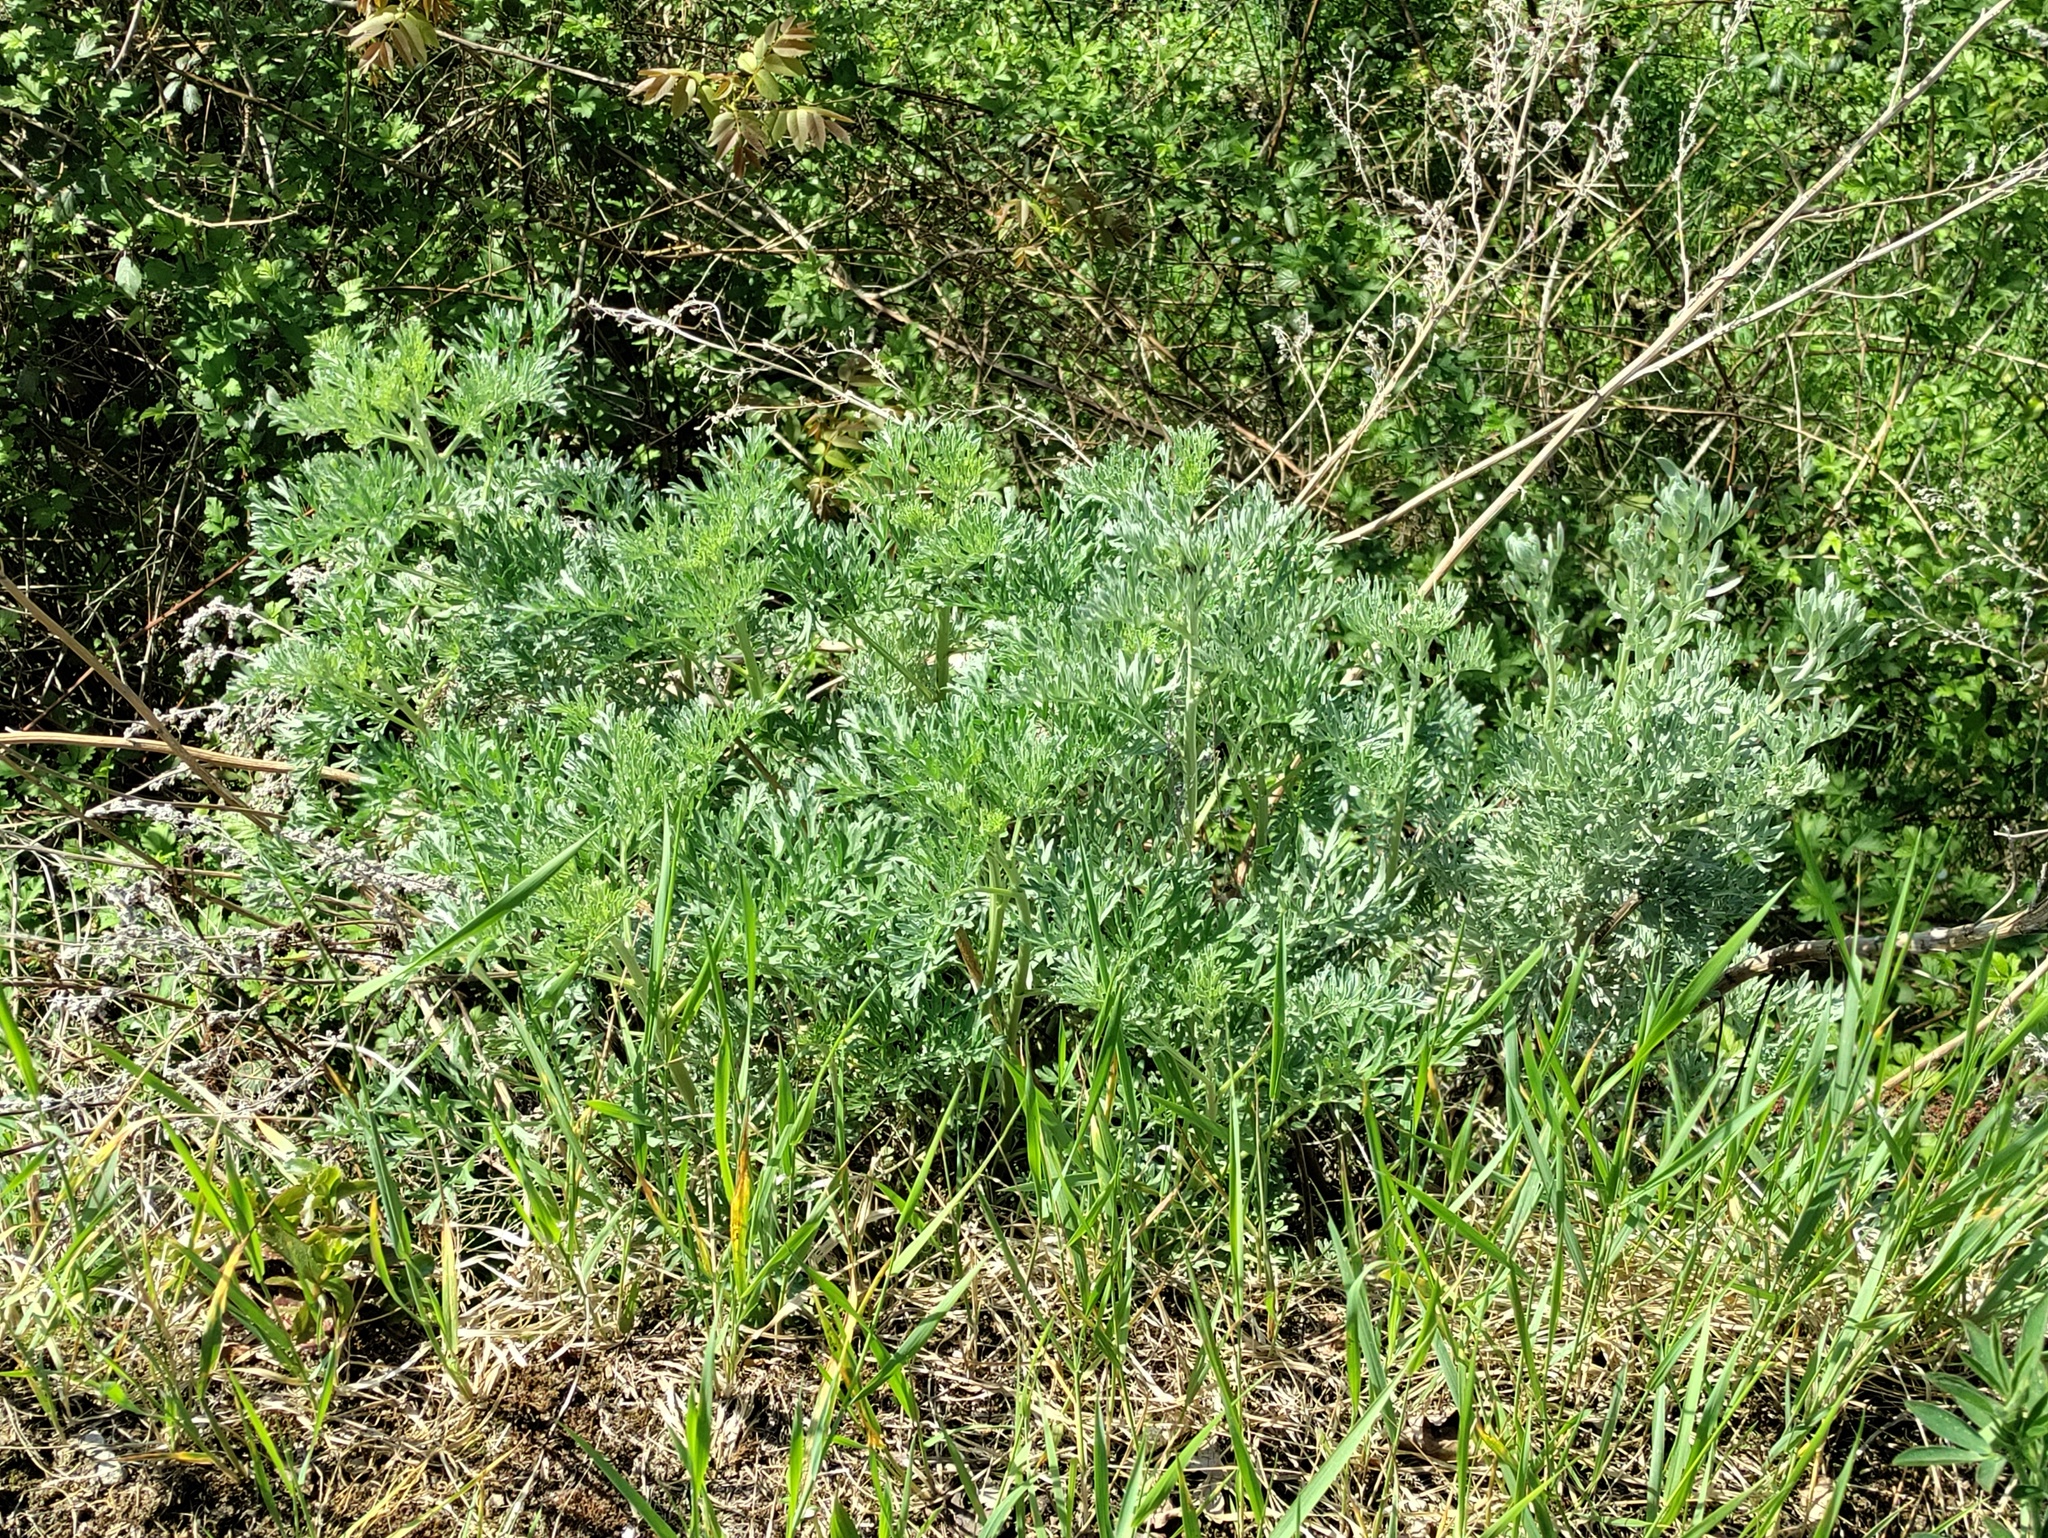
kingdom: Plantae
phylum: Tracheophyta
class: Magnoliopsida
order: Asterales
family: Asteraceae
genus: Artemisia
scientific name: Artemisia absinthium
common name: Wormwood
